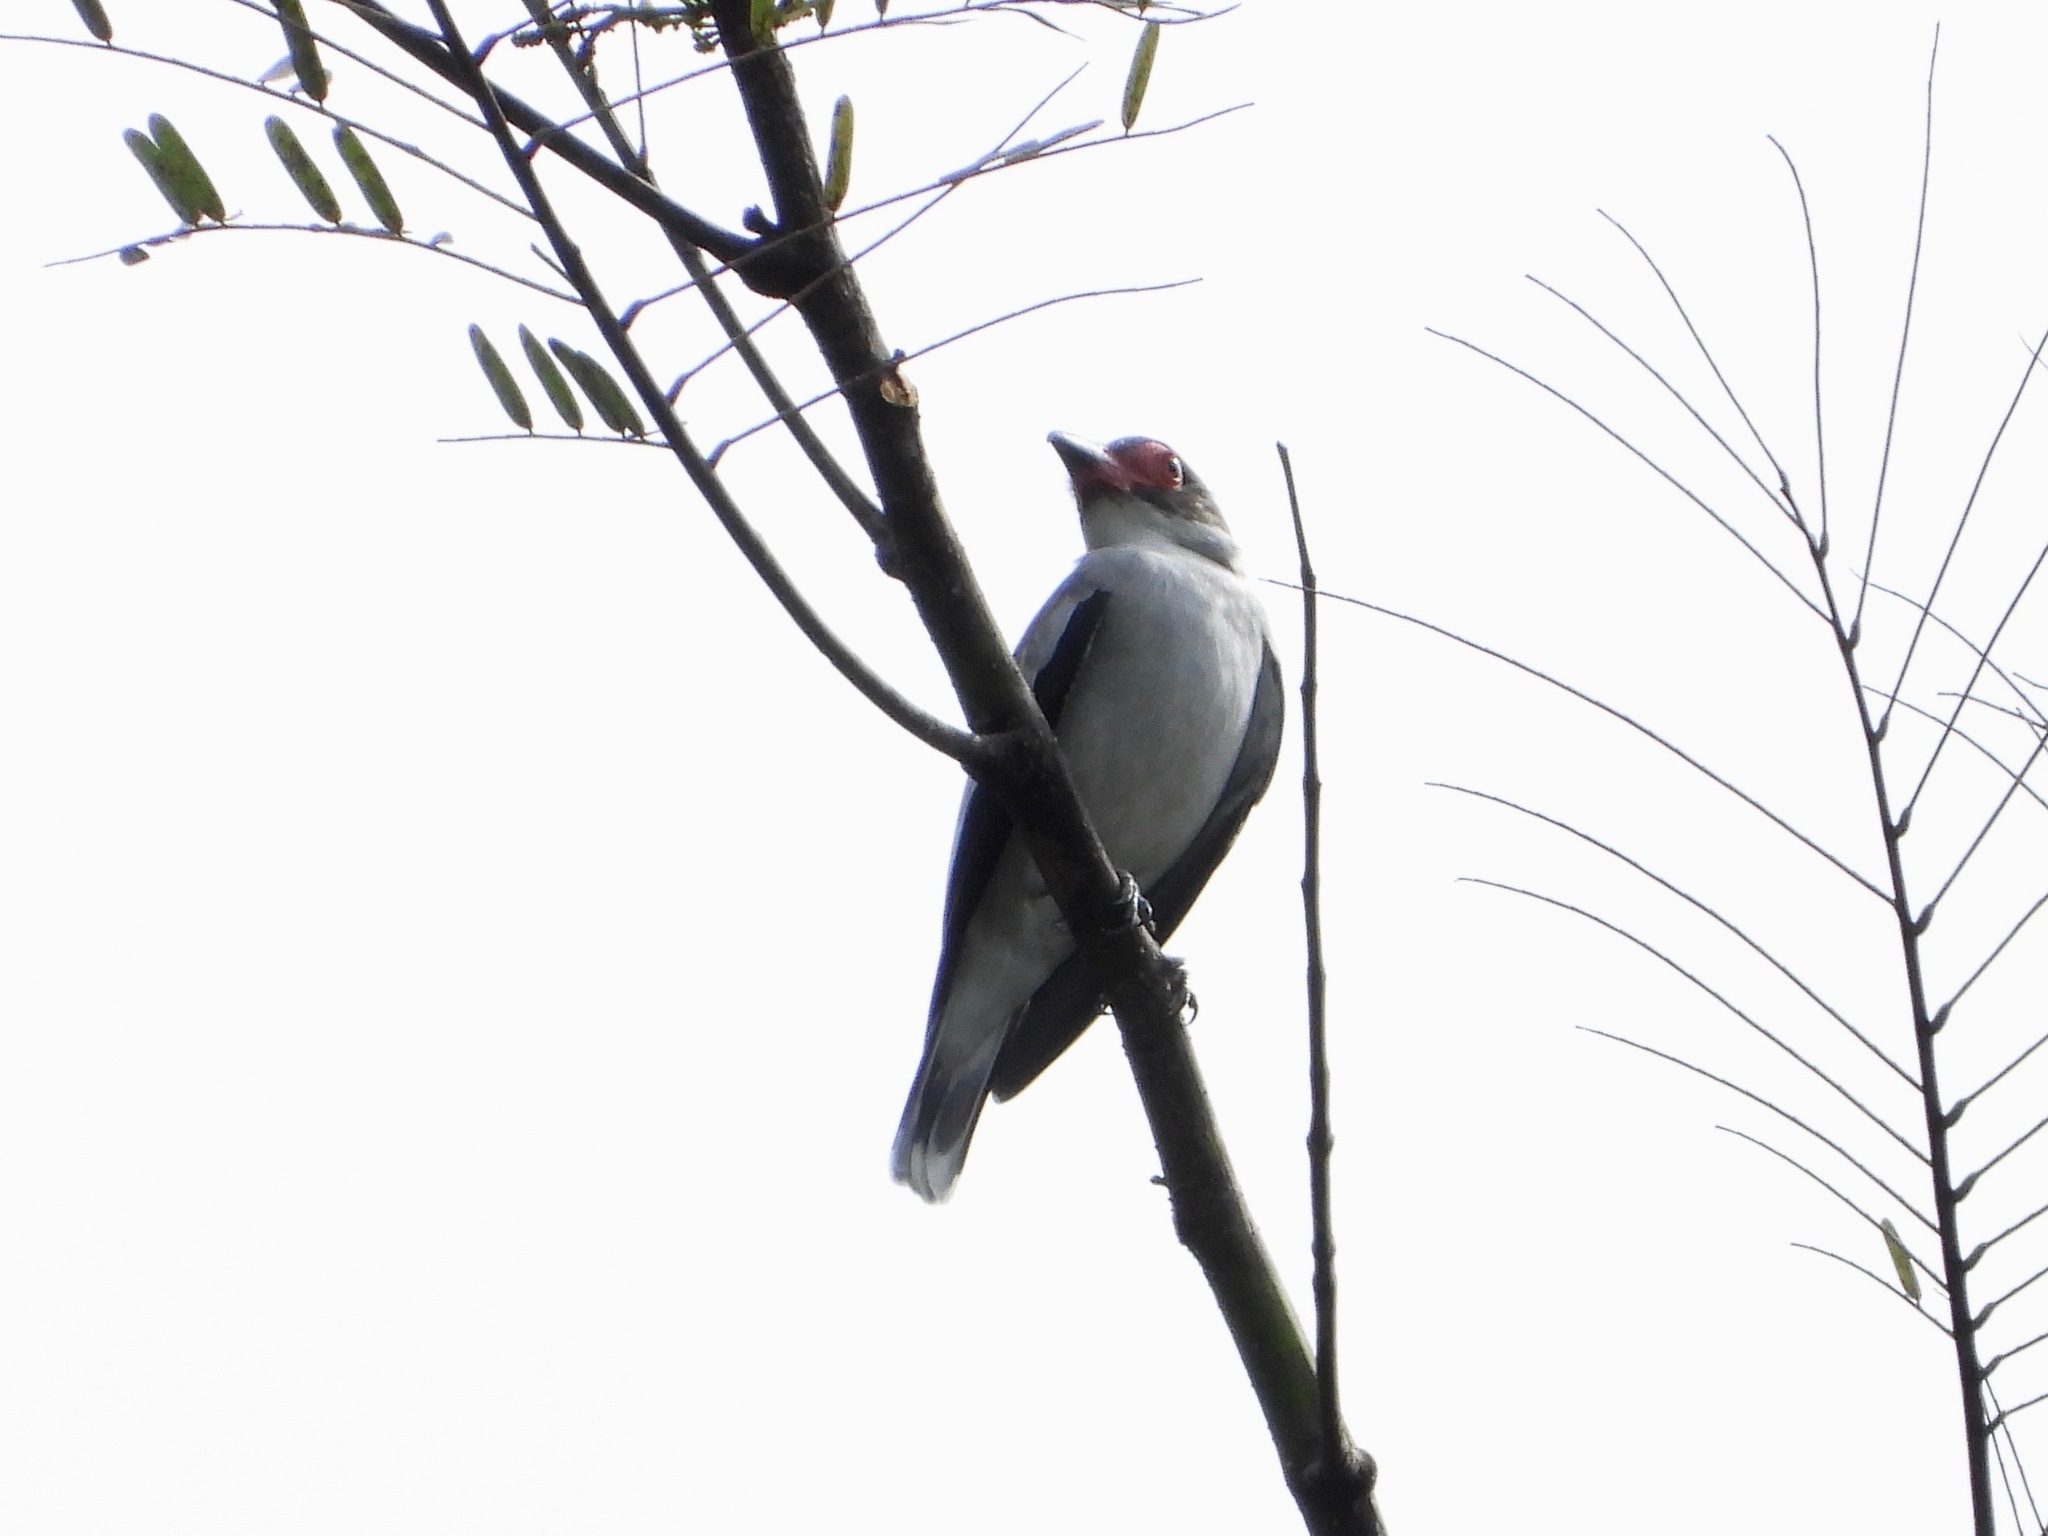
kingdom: Animalia
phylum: Chordata
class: Aves
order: Passeriformes
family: Cotingidae
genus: Tityra
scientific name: Tityra semifasciata
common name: Masked tityra
